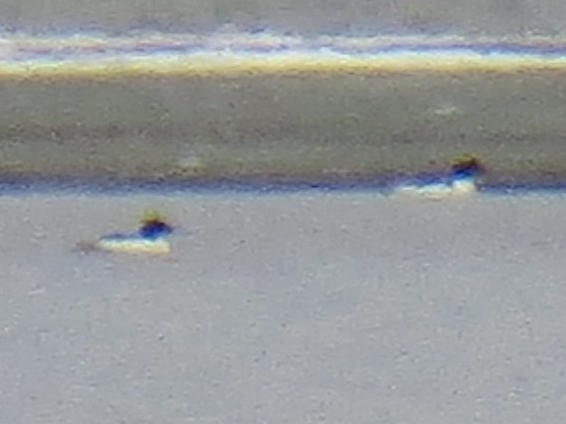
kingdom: Animalia
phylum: Chordata
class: Aves
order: Anseriformes
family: Anatidae
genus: Mergus
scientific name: Mergus merganser
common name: Common merganser
